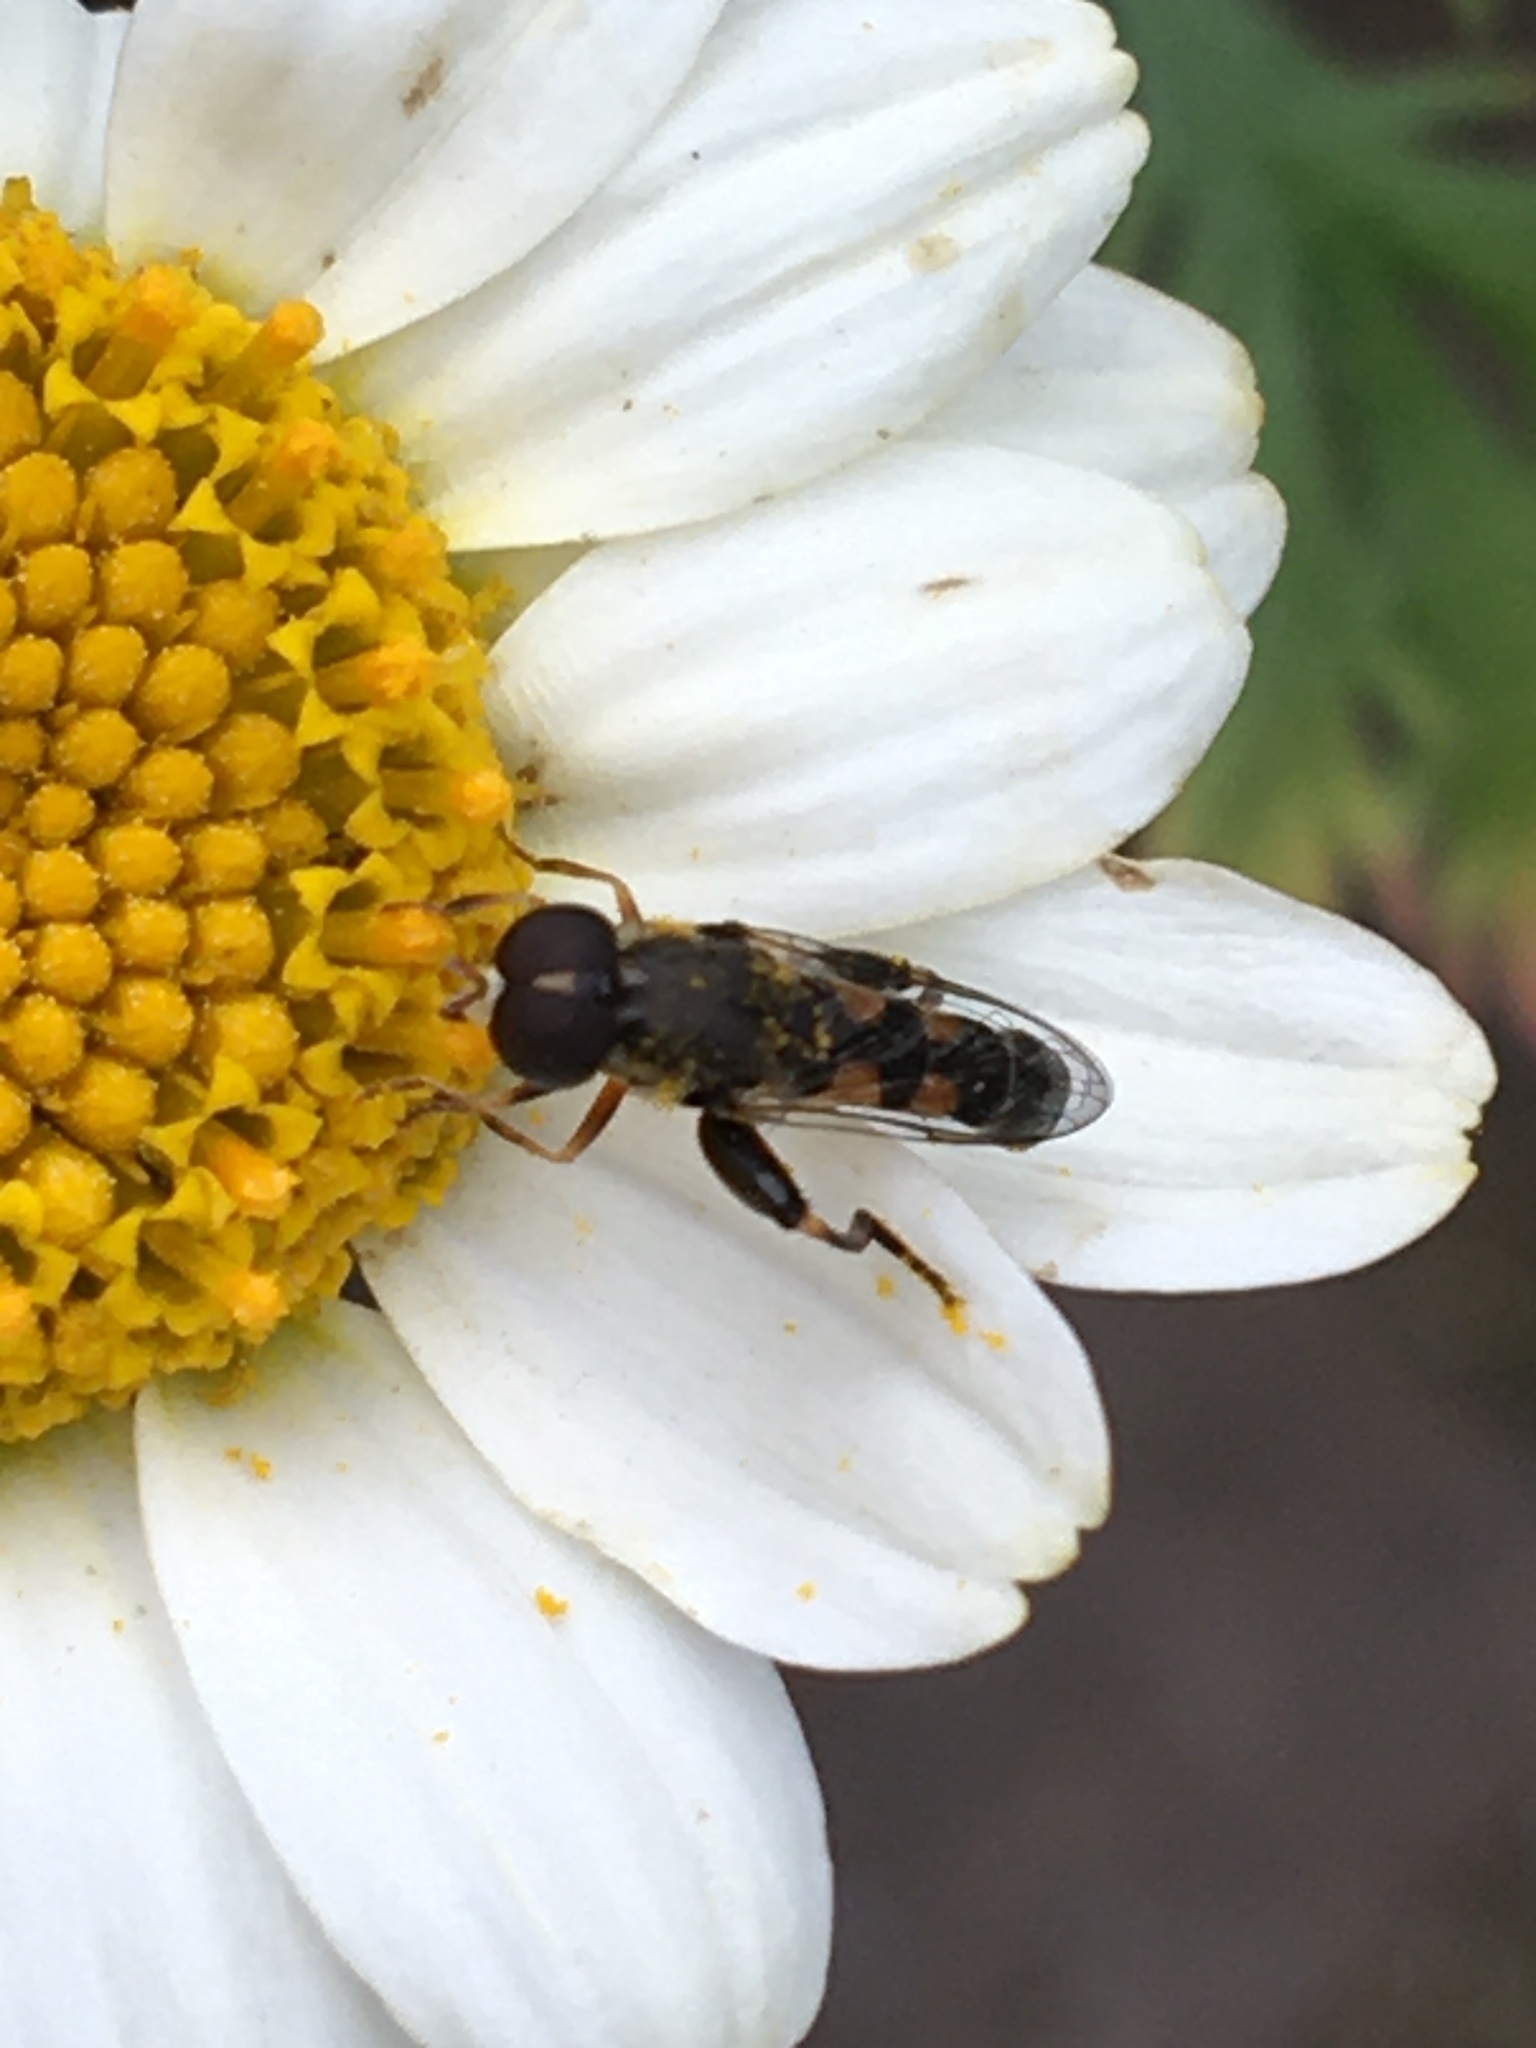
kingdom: Animalia
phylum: Arthropoda
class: Insecta
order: Diptera
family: Syrphidae
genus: Syritta
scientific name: Syritta pipiens
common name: Hover fly
